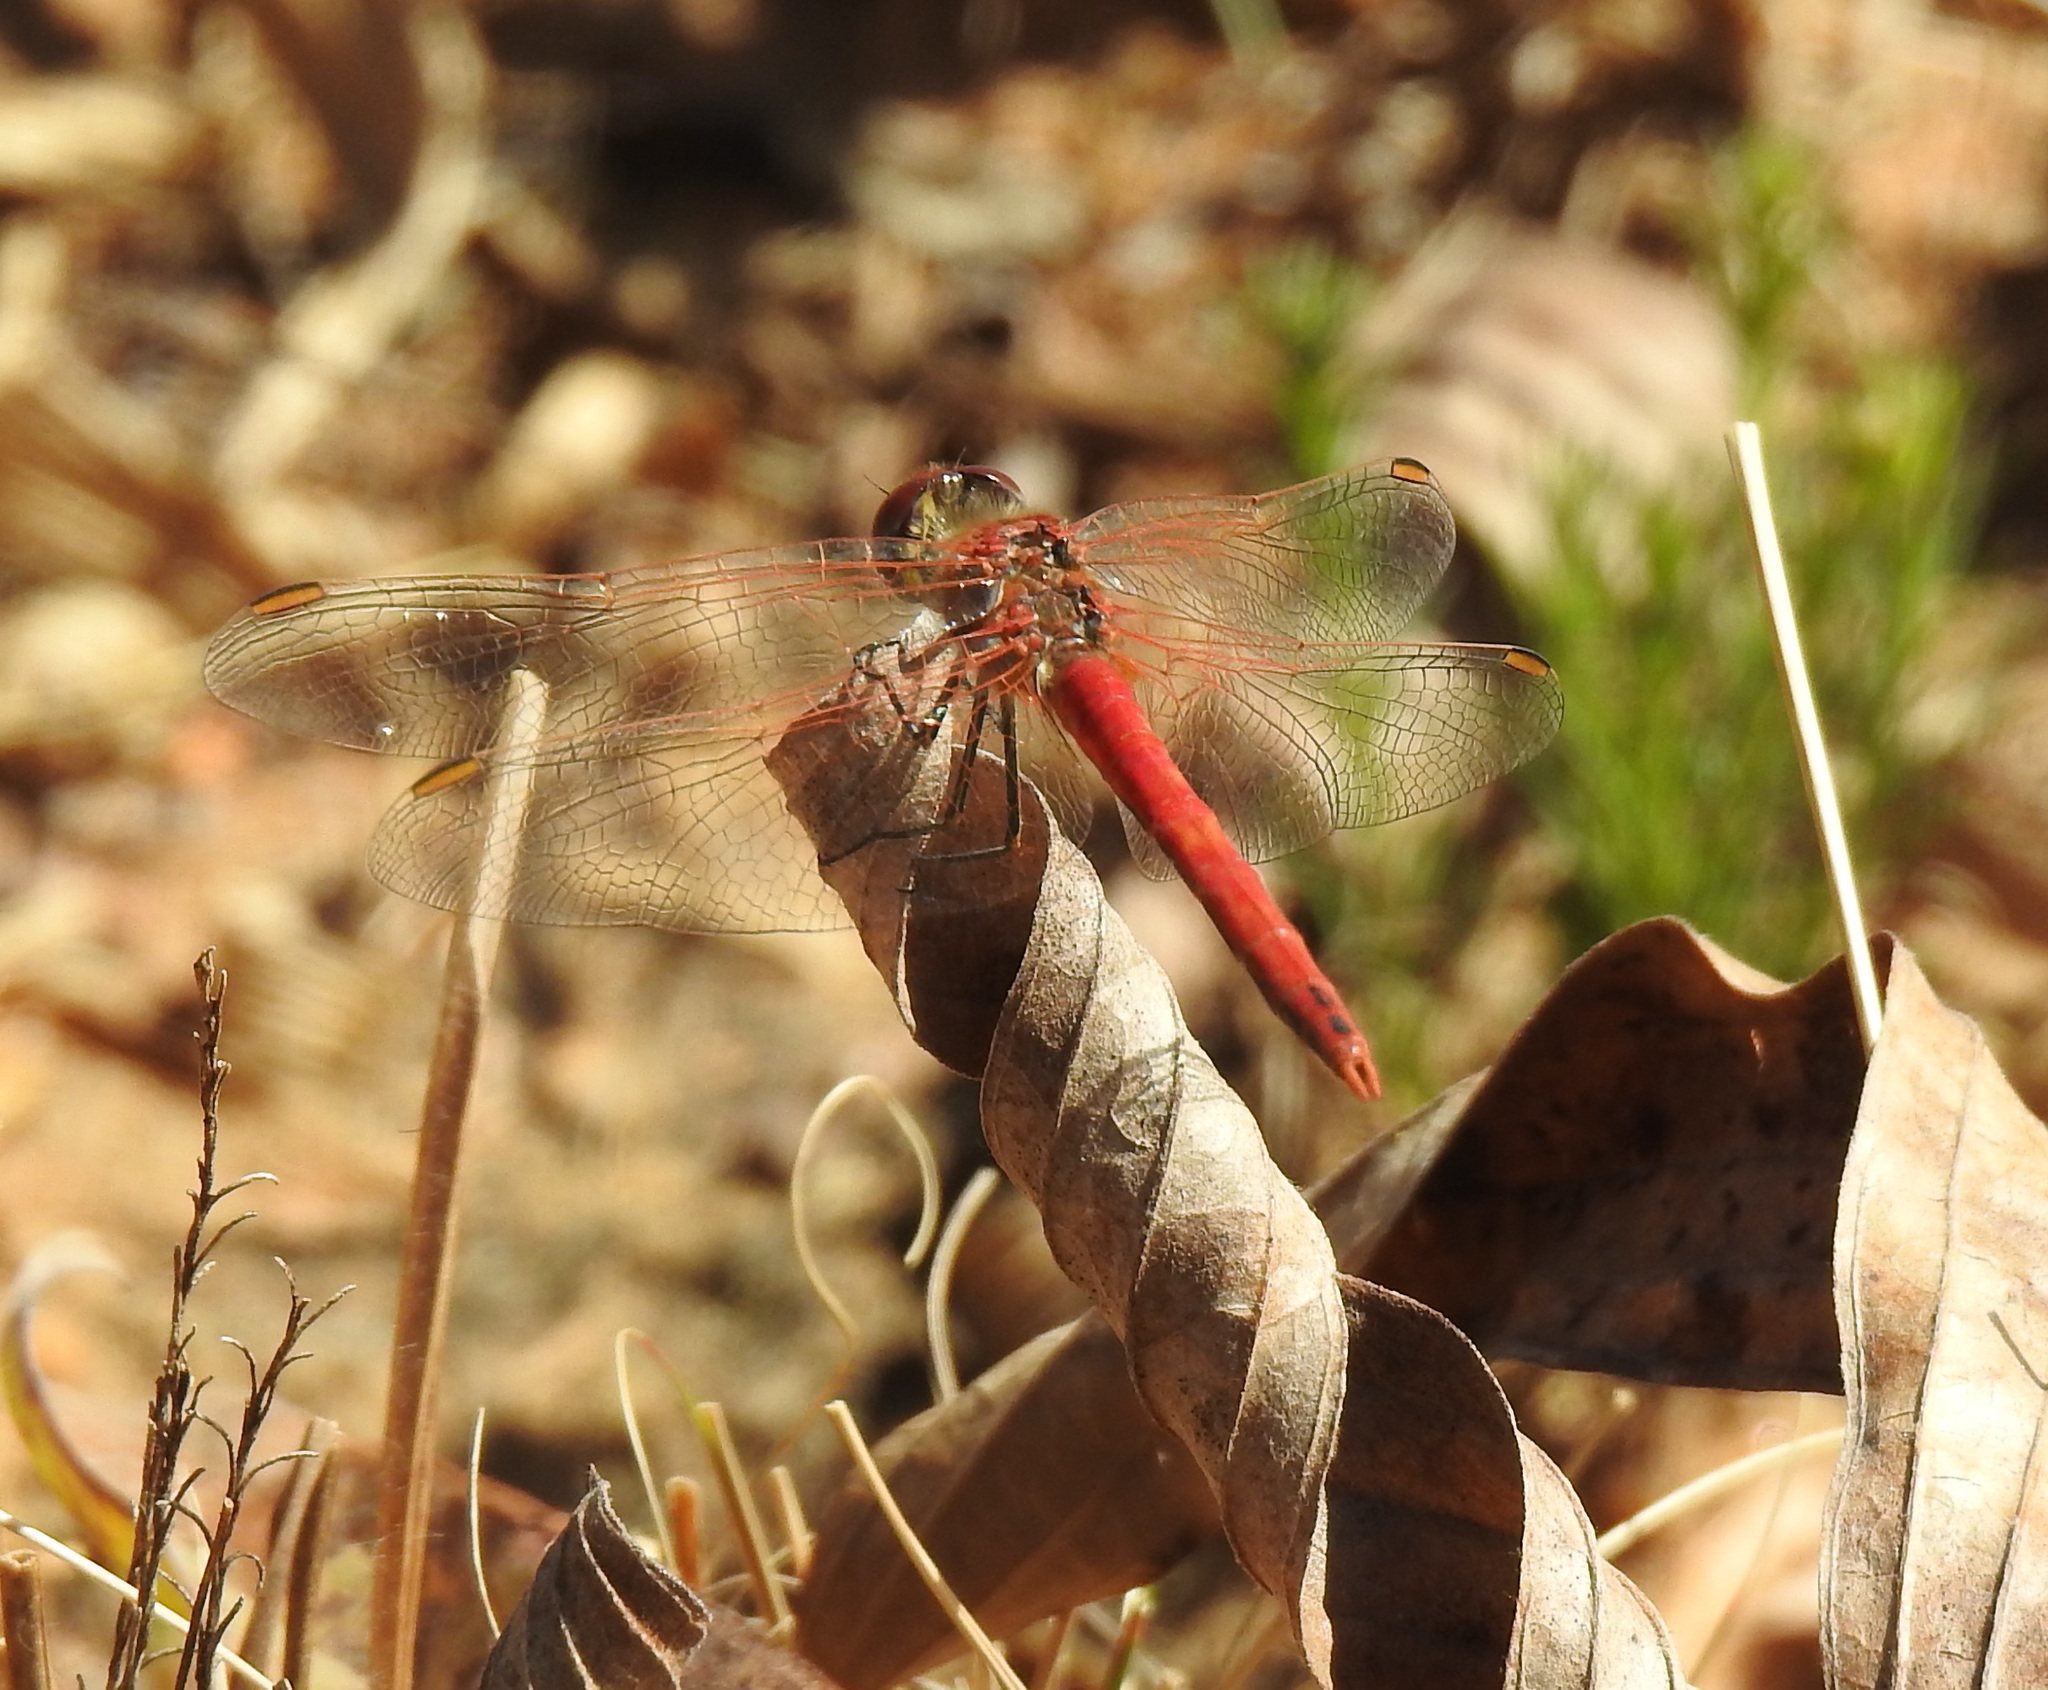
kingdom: Animalia
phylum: Arthropoda
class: Insecta
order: Odonata
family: Libellulidae
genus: Sympetrum
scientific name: Sympetrum fonscolombii
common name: Red-veined darter
